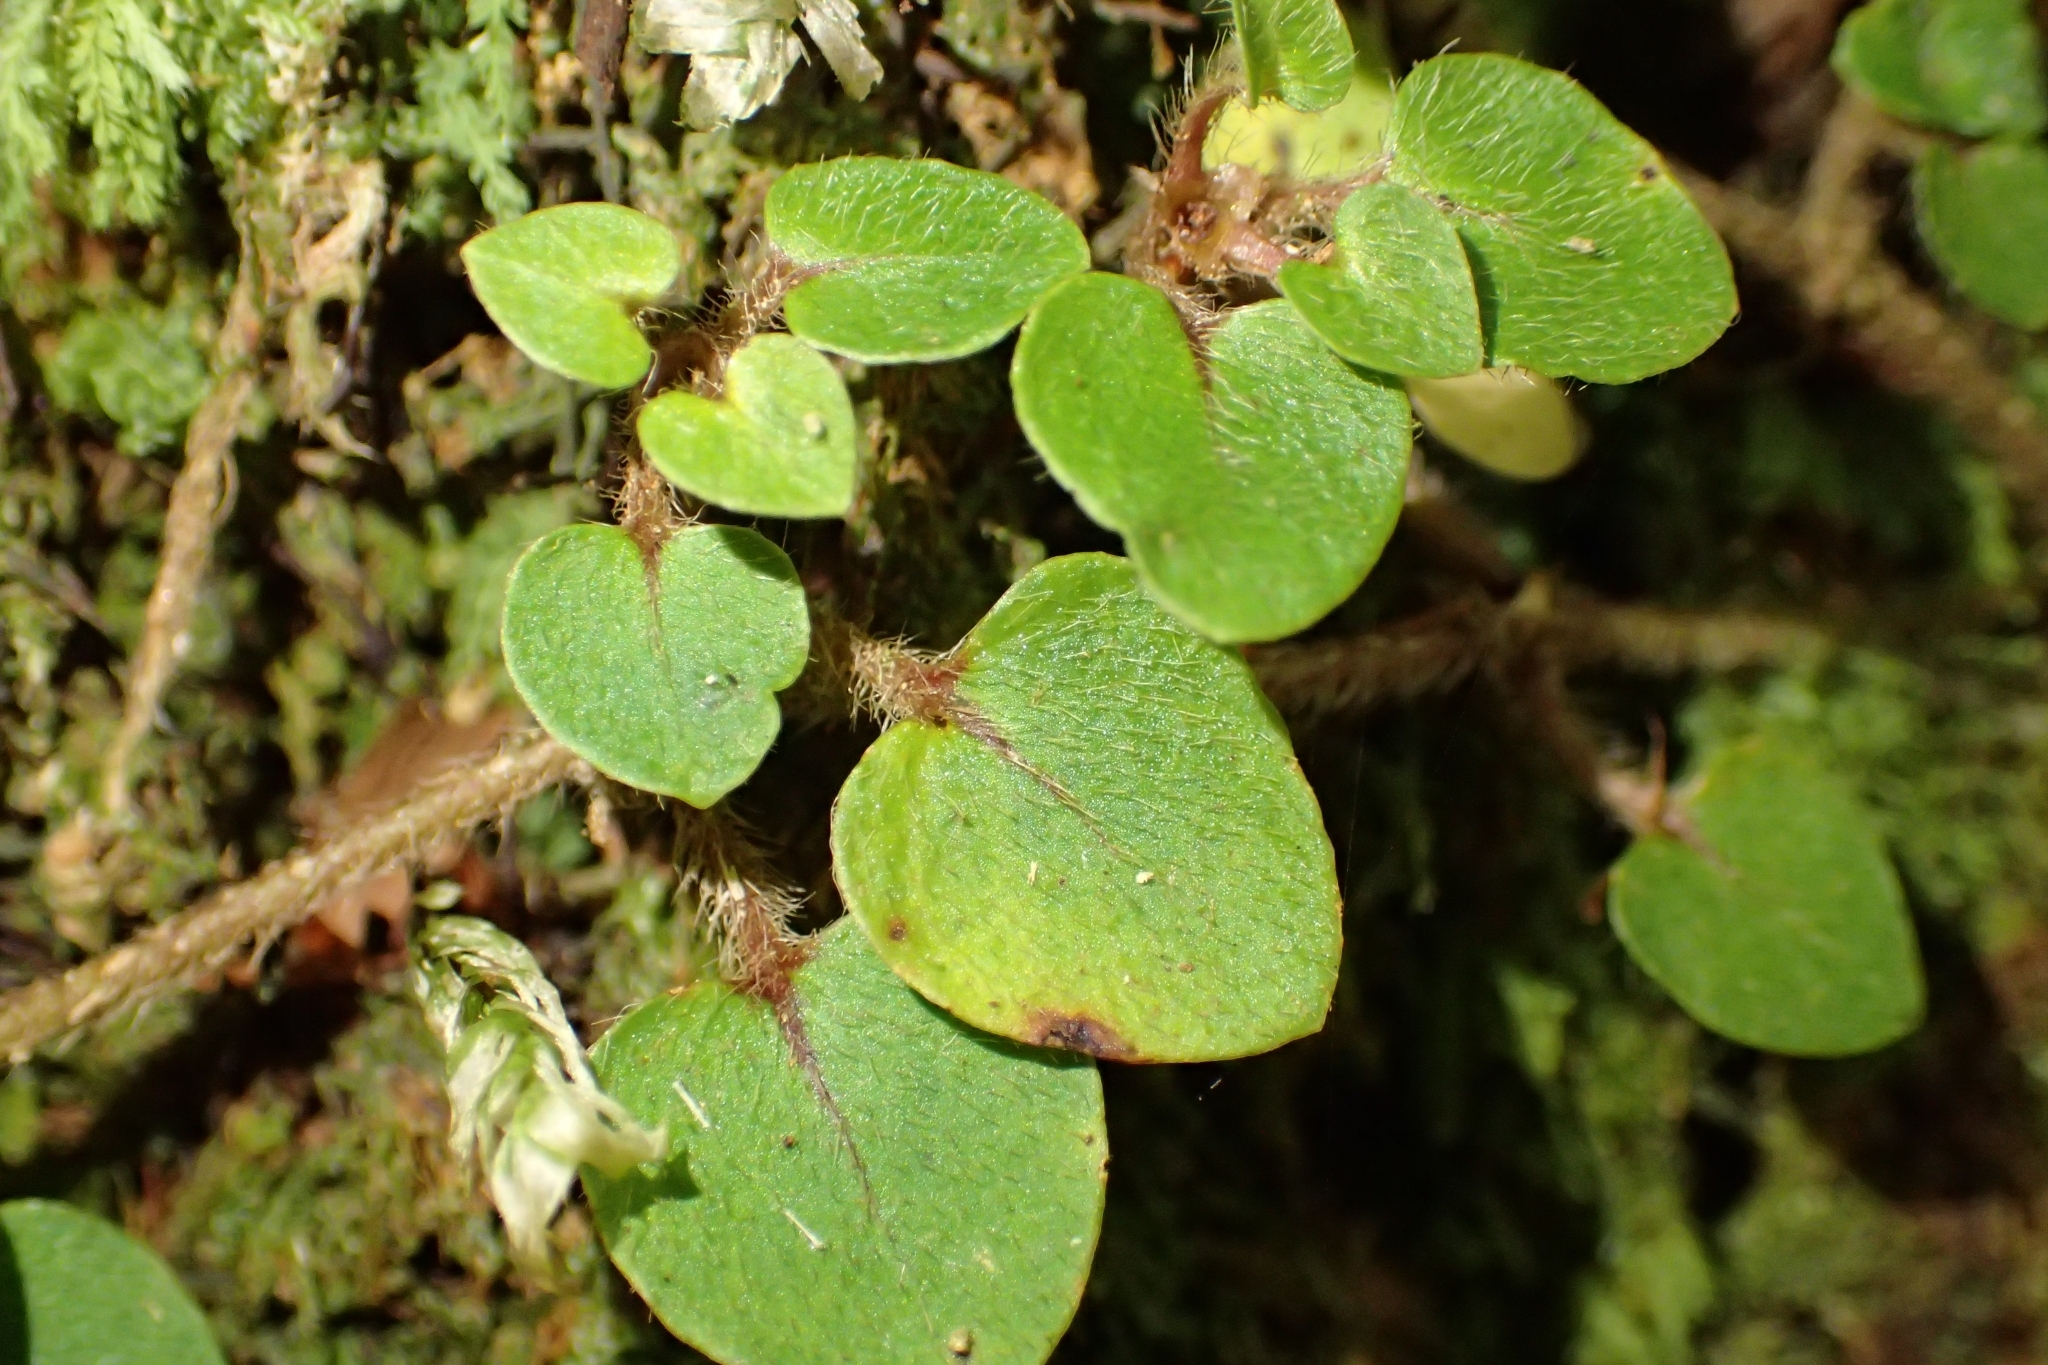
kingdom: Plantae
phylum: Tracheophyta
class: Magnoliopsida
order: Gentianales
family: Rubiaceae
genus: Nertera
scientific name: Nertera villosa
